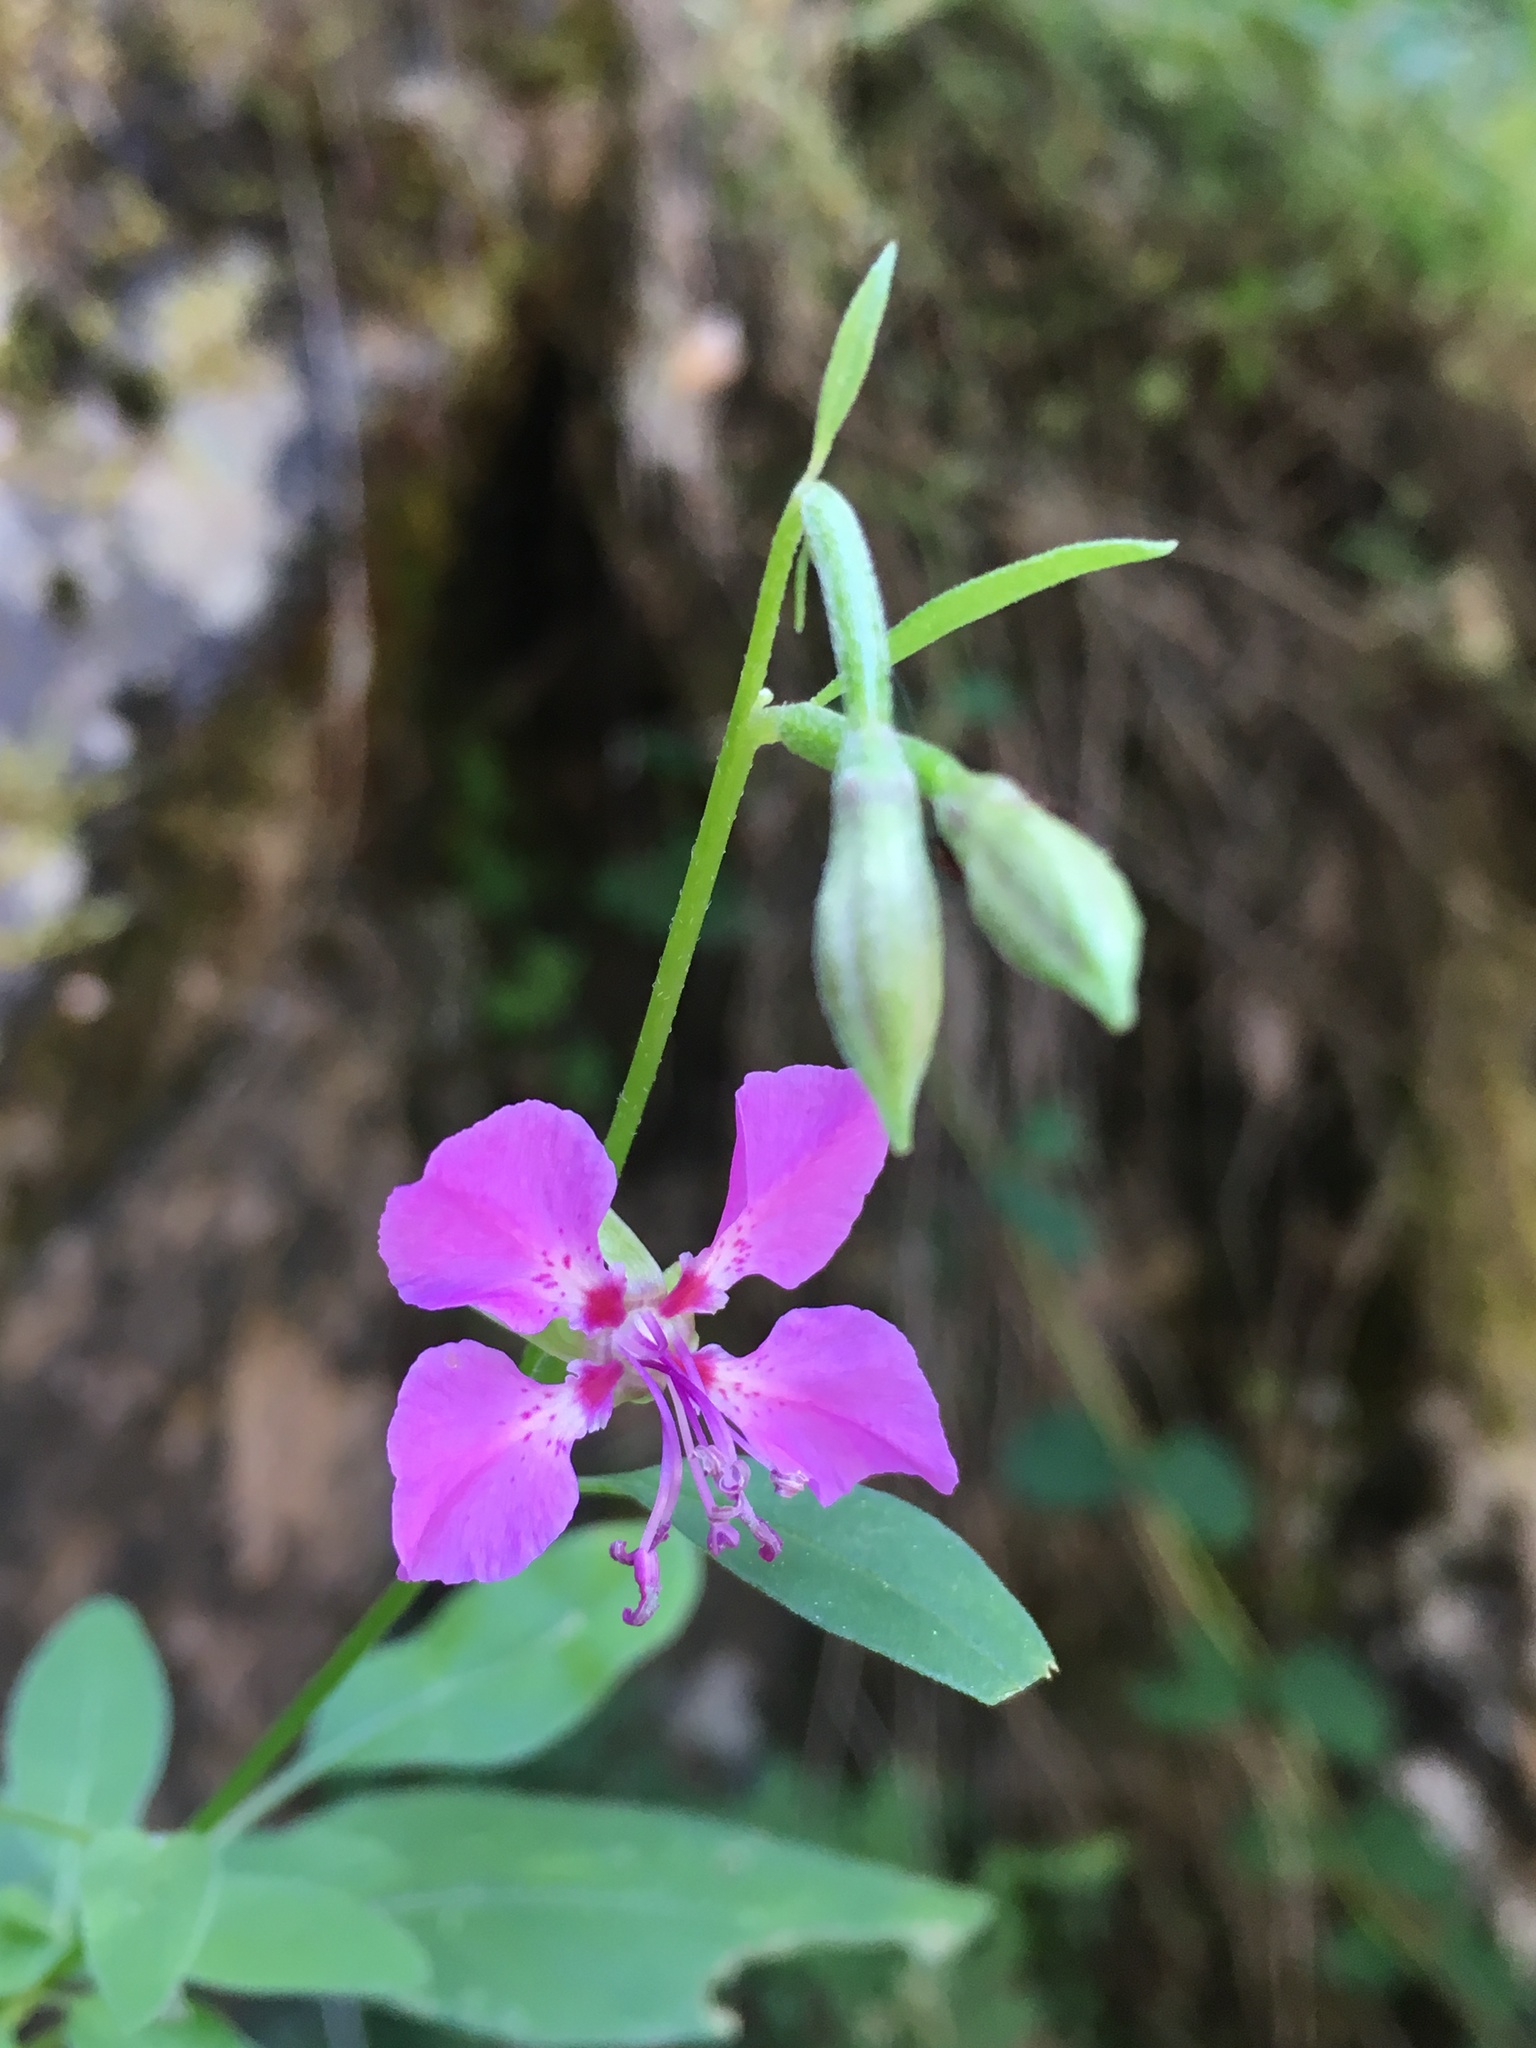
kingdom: Plantae
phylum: Tracheophyta
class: Magnoliopsida
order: Myrtales
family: Onagraceae
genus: Clarkia
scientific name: Clarkia rhomboidea
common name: Broadleaf clarkia
